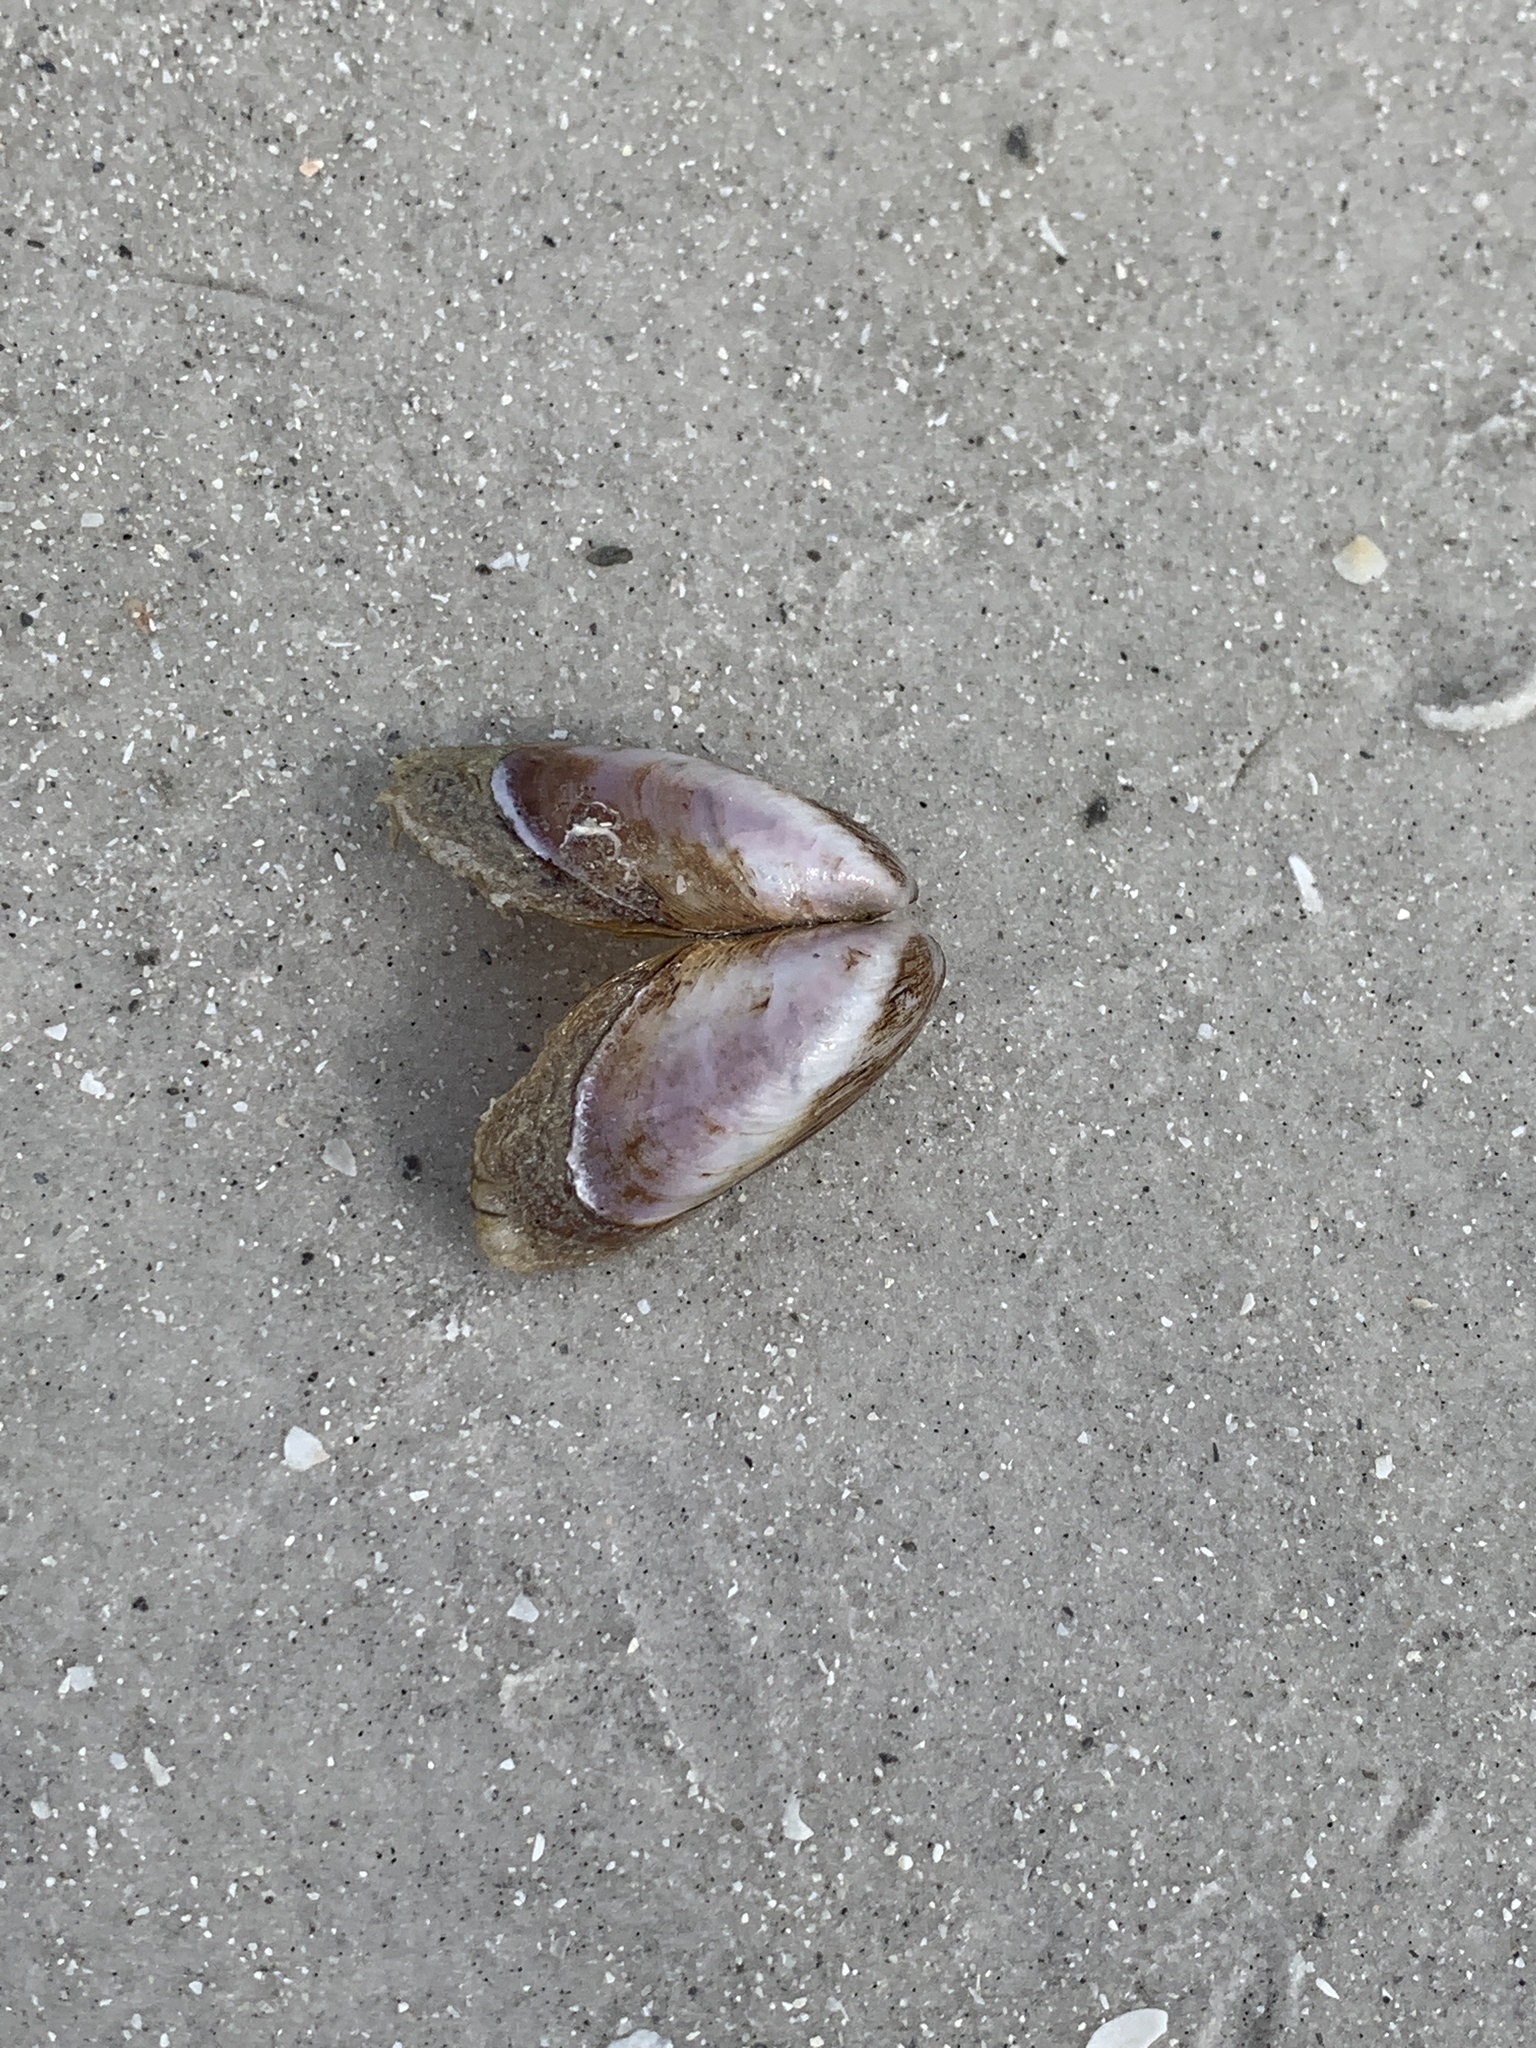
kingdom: Animalia
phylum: Mollusca
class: Bivalvia
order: Mytilida
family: Mytilidae
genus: Modiolus
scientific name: Modiolus squamosus
